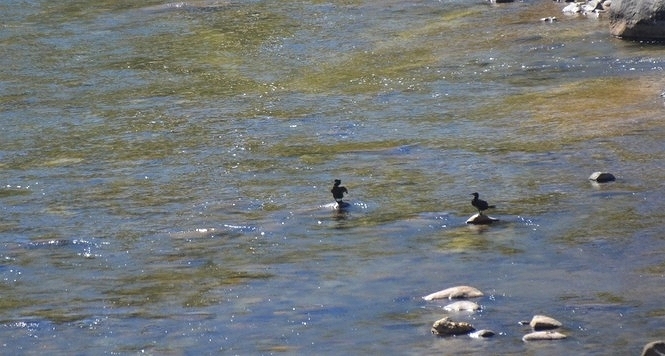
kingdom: Animalia
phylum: Chordata
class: Aves
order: Suliformes
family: Phalacrocoracidae
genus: Phalacrocorax
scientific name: Phalacrocorax brasilianus
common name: Neotropic cormorant
